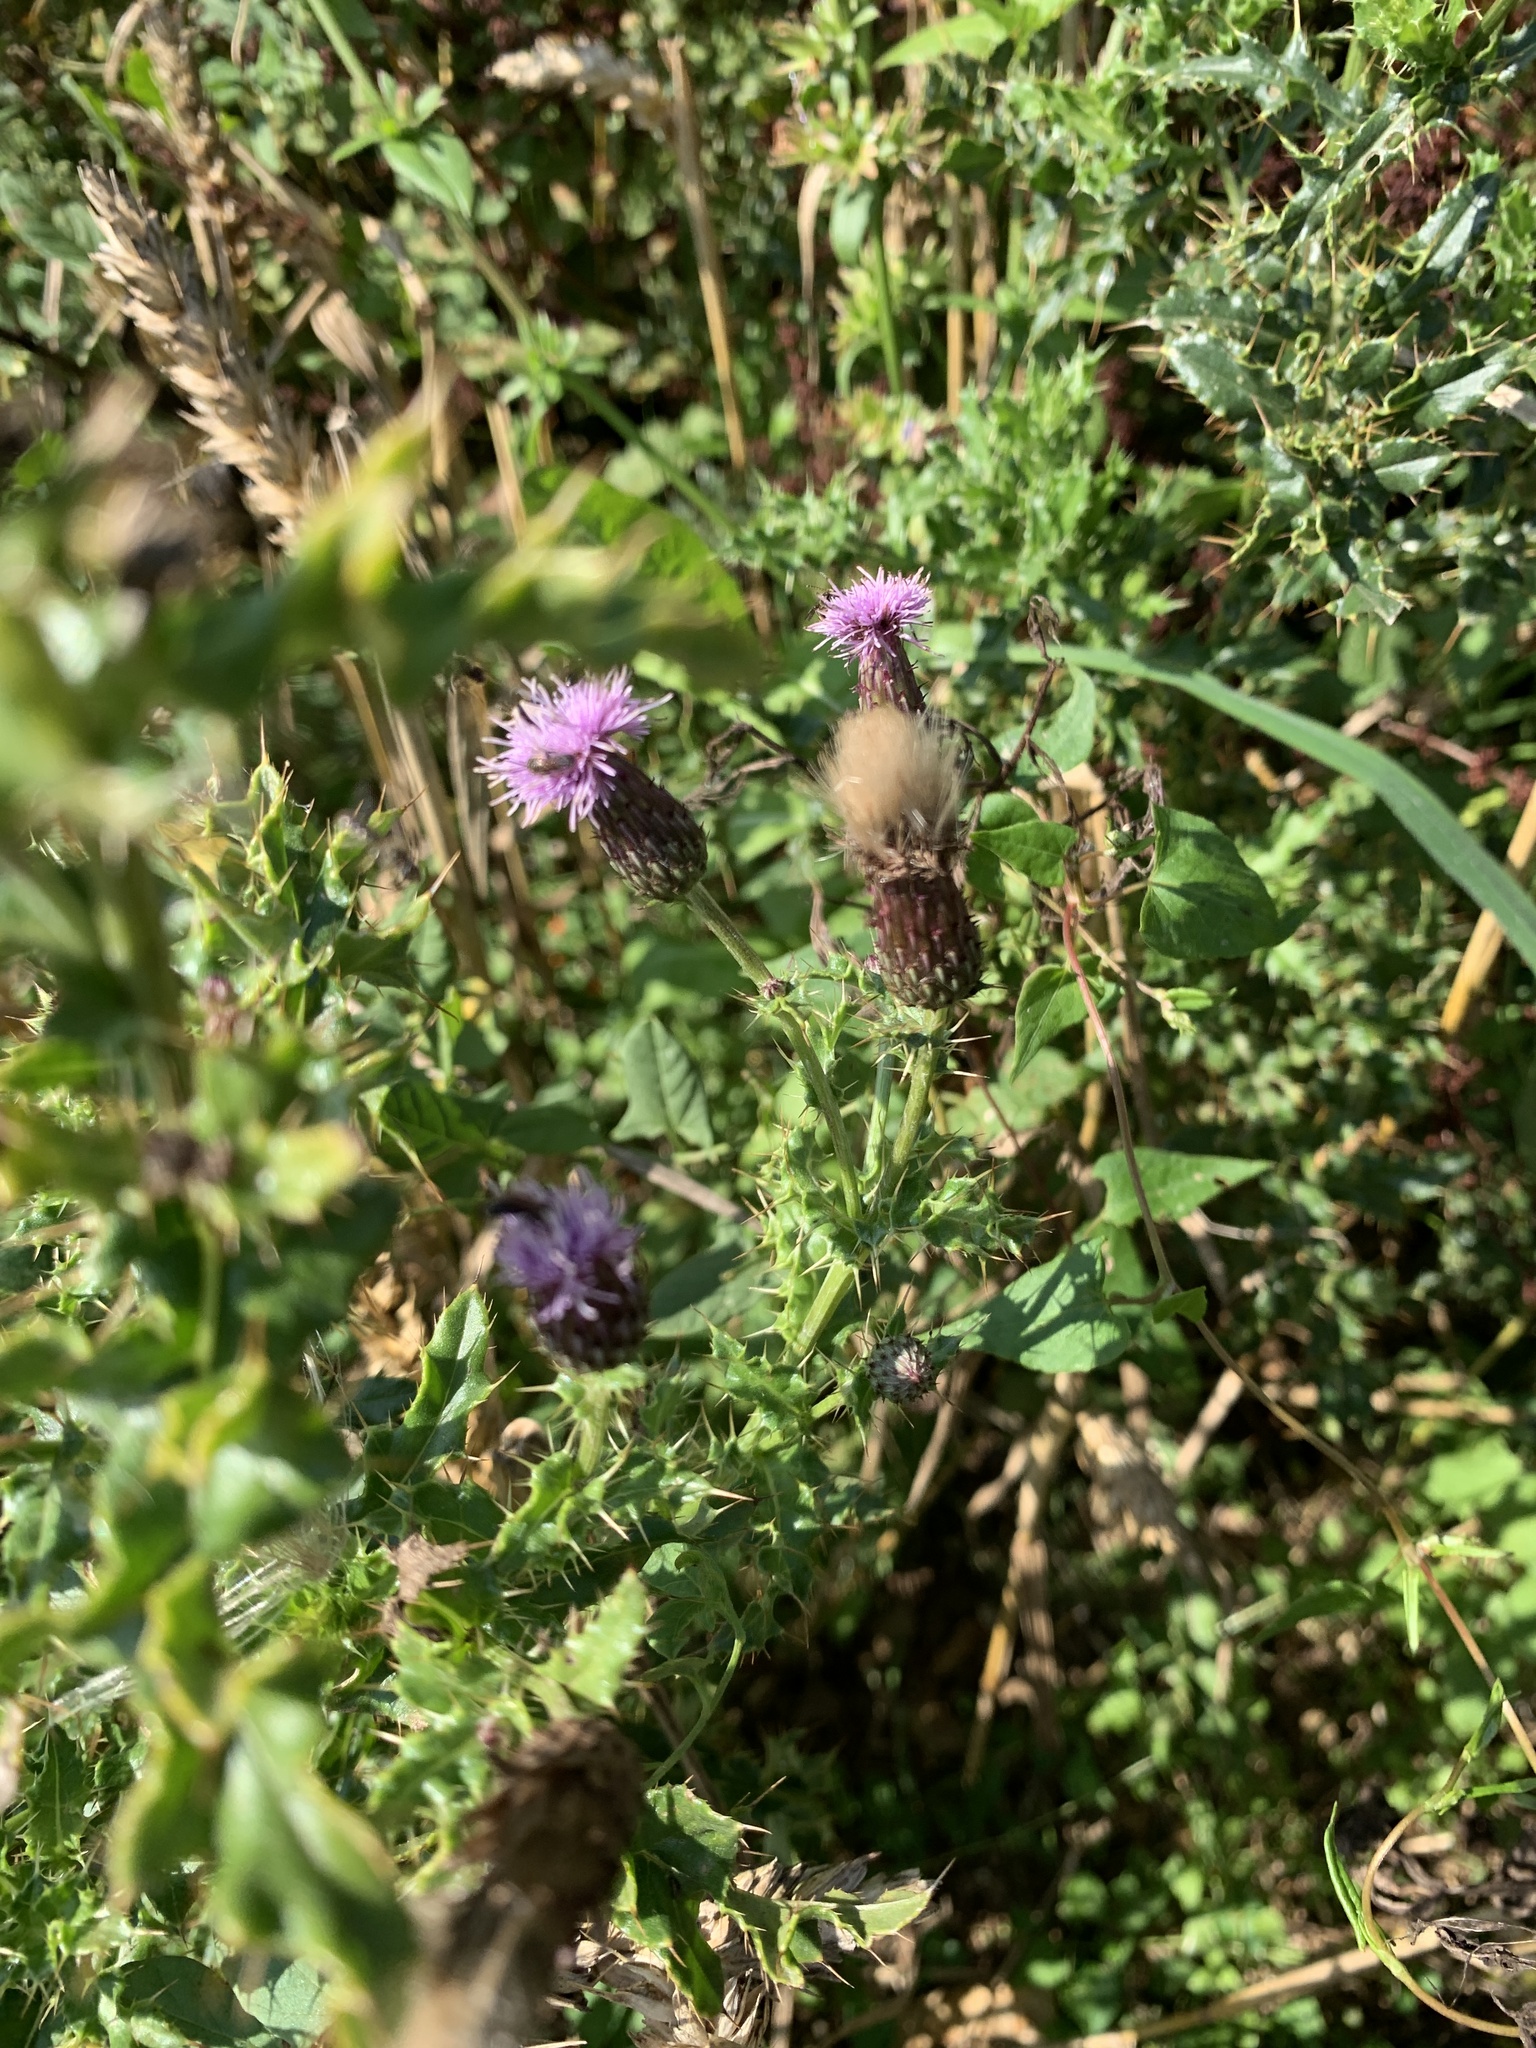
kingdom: Plantae
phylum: Tracheophyta
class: Magnoliopsida
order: Asterales
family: Asteraceae
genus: Cirsium
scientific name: Cirsium arvense
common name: Creeping thistle
